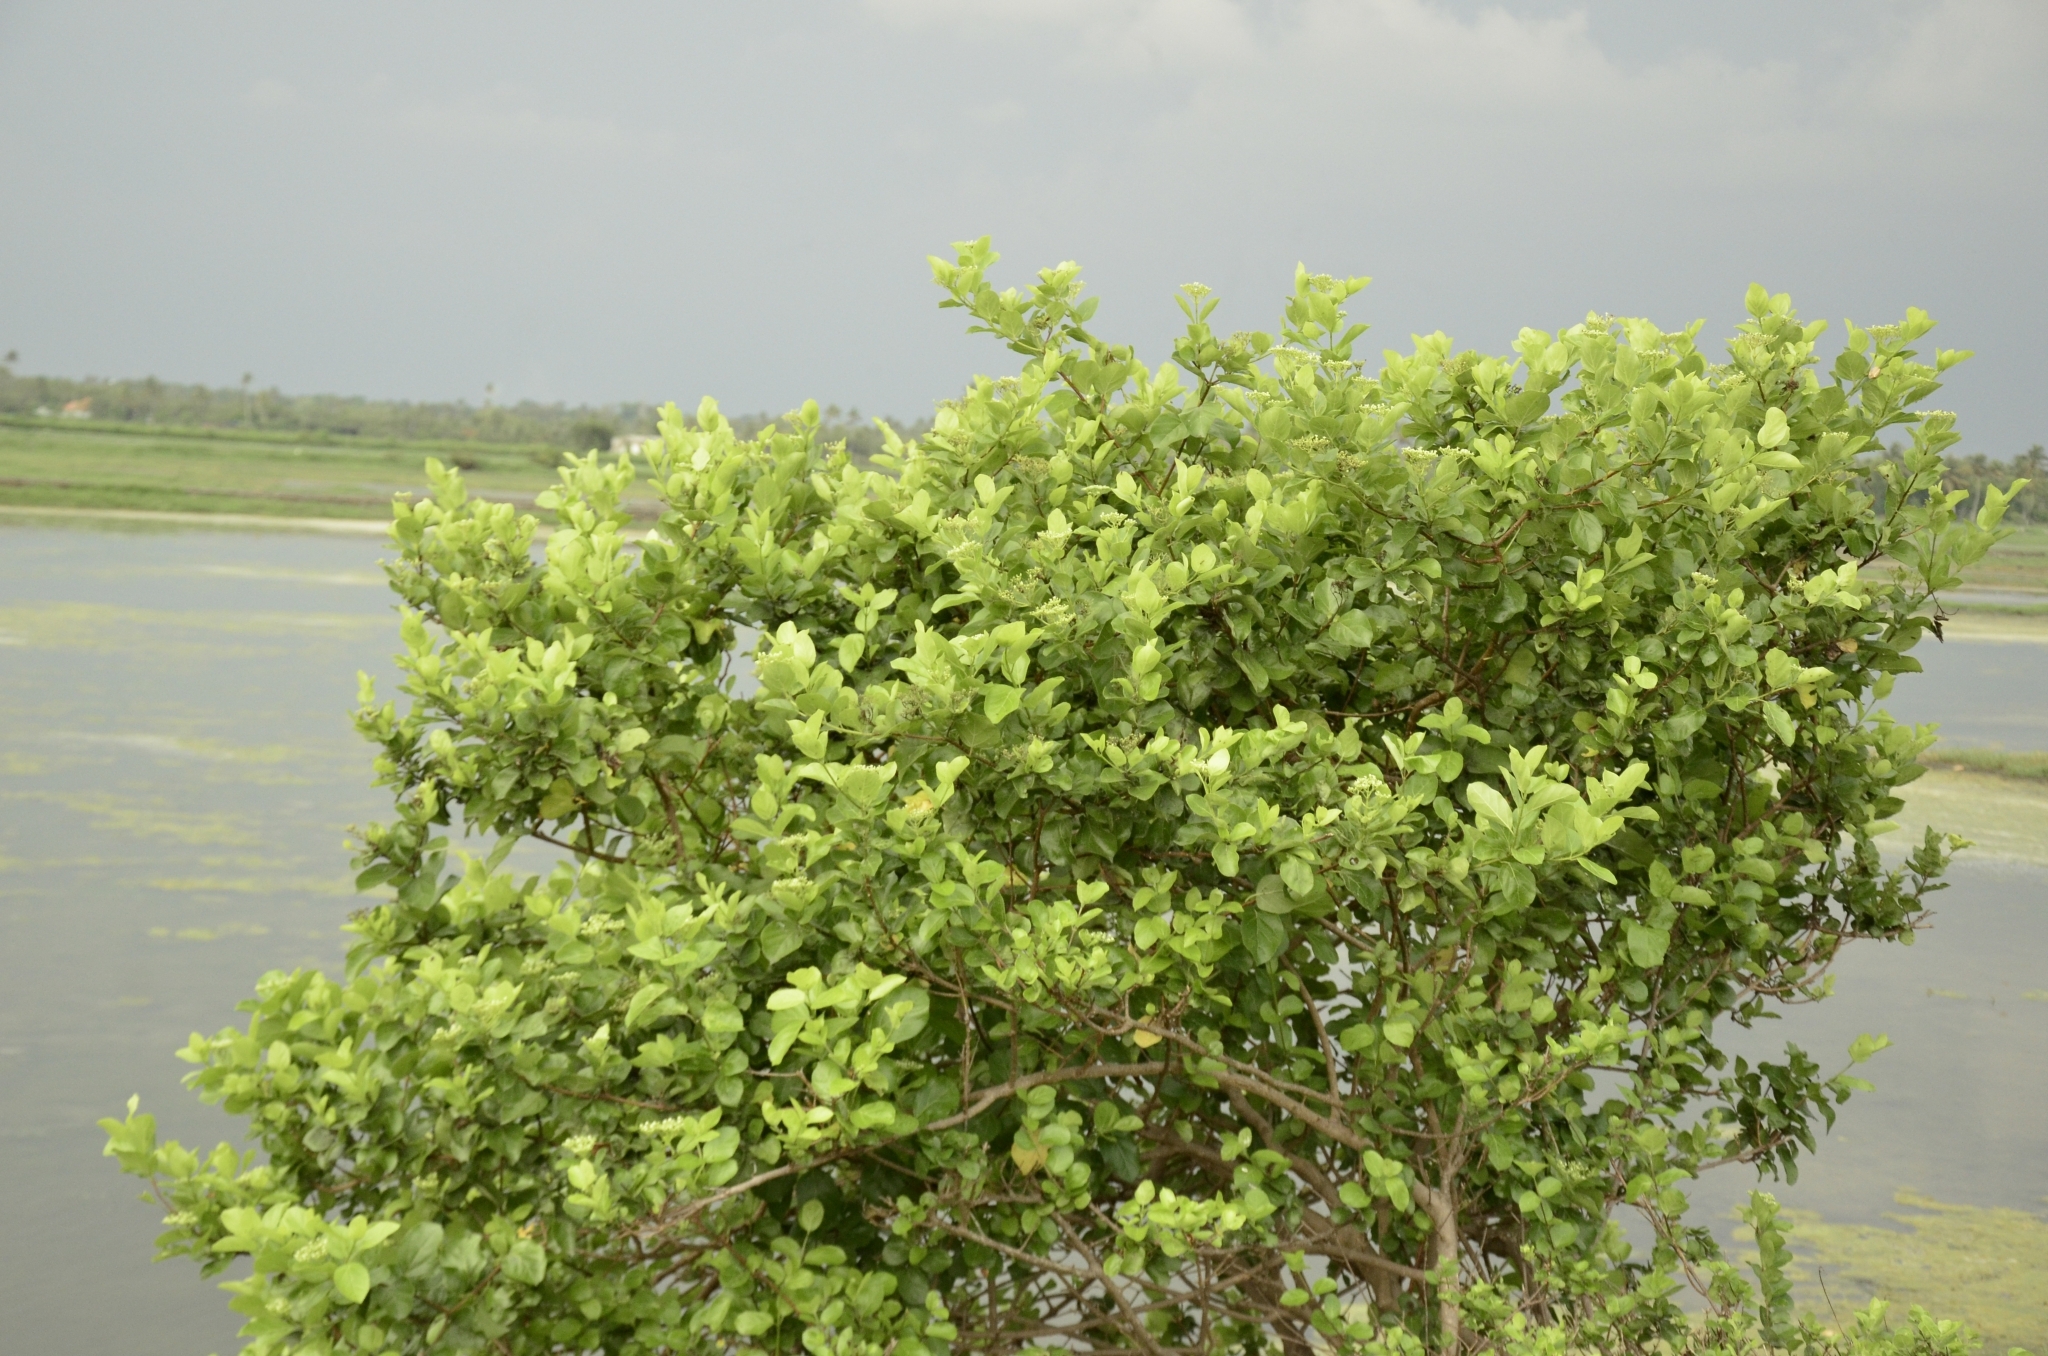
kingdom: Plantae
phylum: Tracheophyta
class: Magnoliopsida
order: Lamiales
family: Lamiaceae
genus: Premna
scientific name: Premna serratifolia
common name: Bastard guelder
